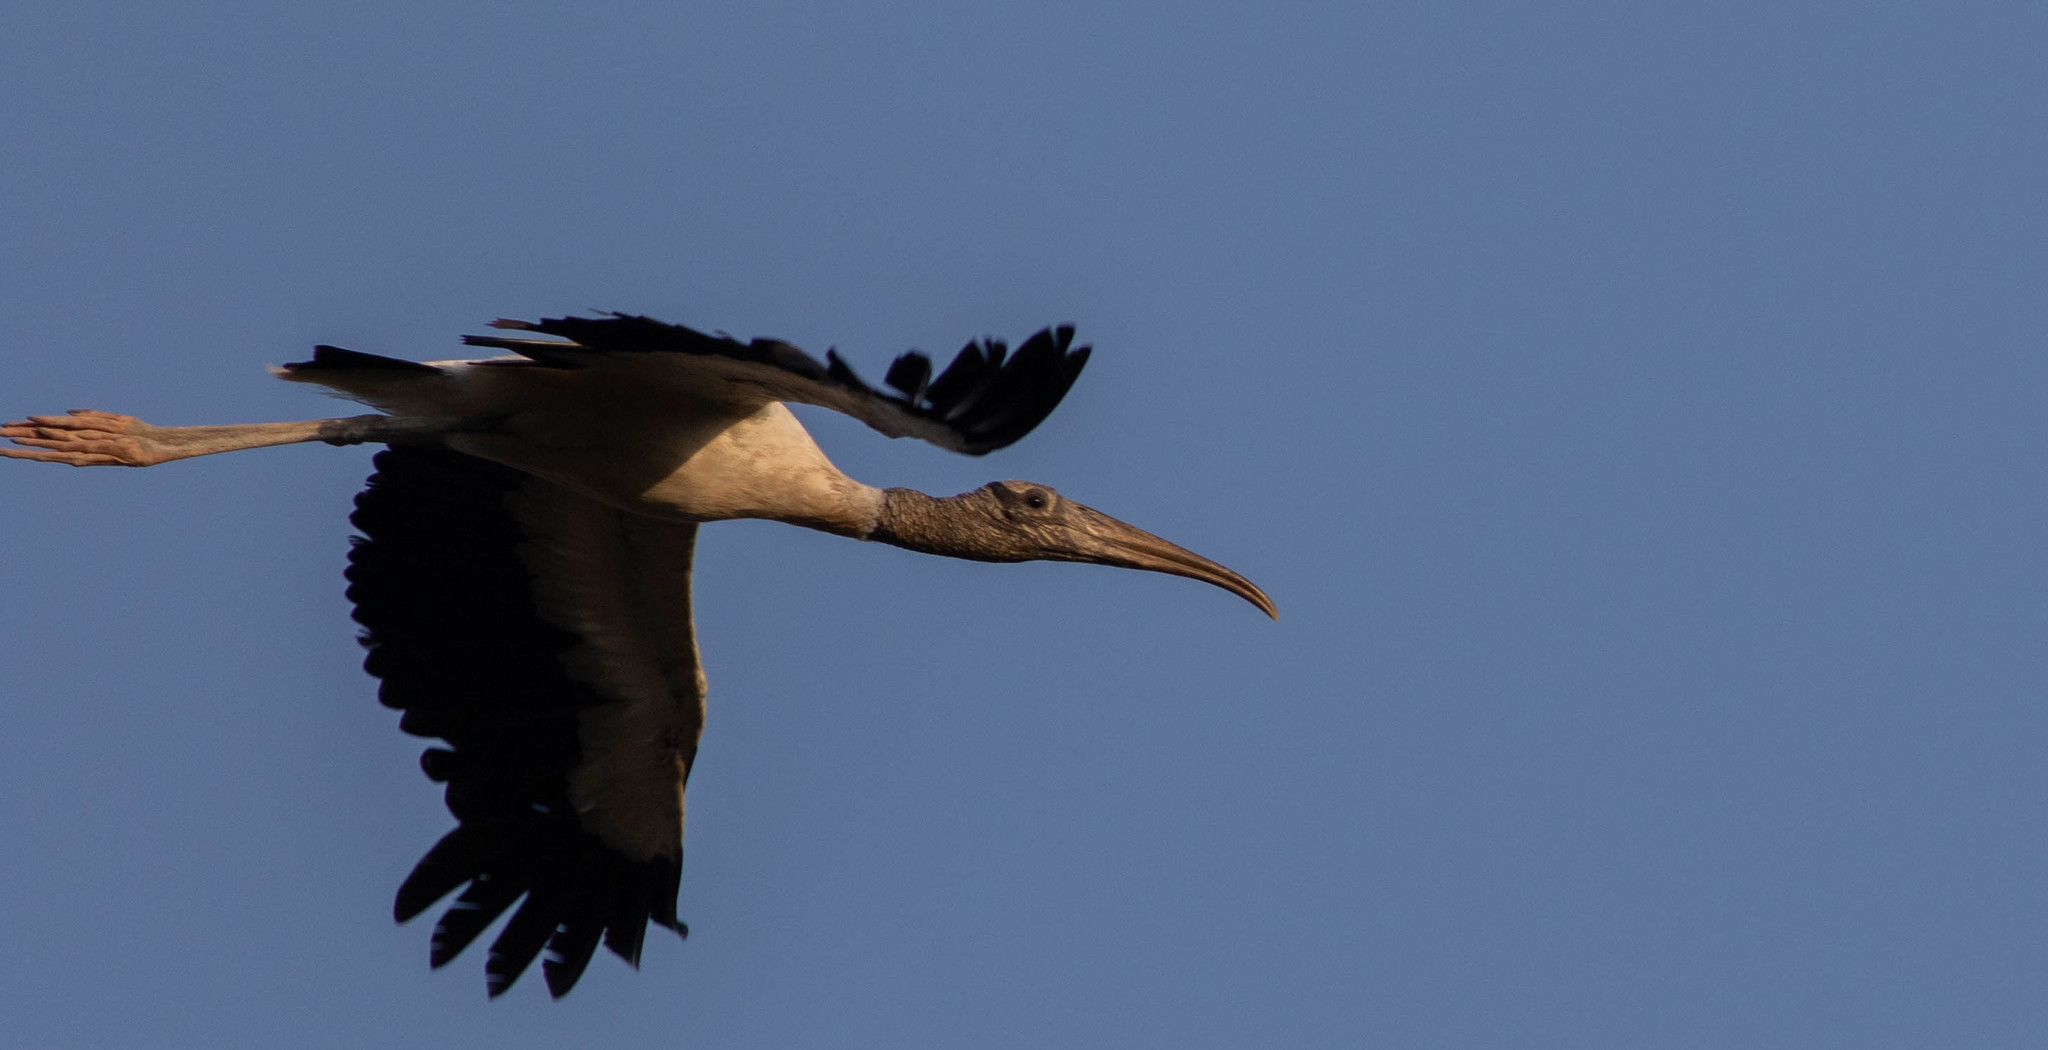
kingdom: Animalia
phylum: Chordata
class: Aves
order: Ciconiiformes
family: Ciconiidae
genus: Mycteria
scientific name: Mycteria americana
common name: Wood stork
